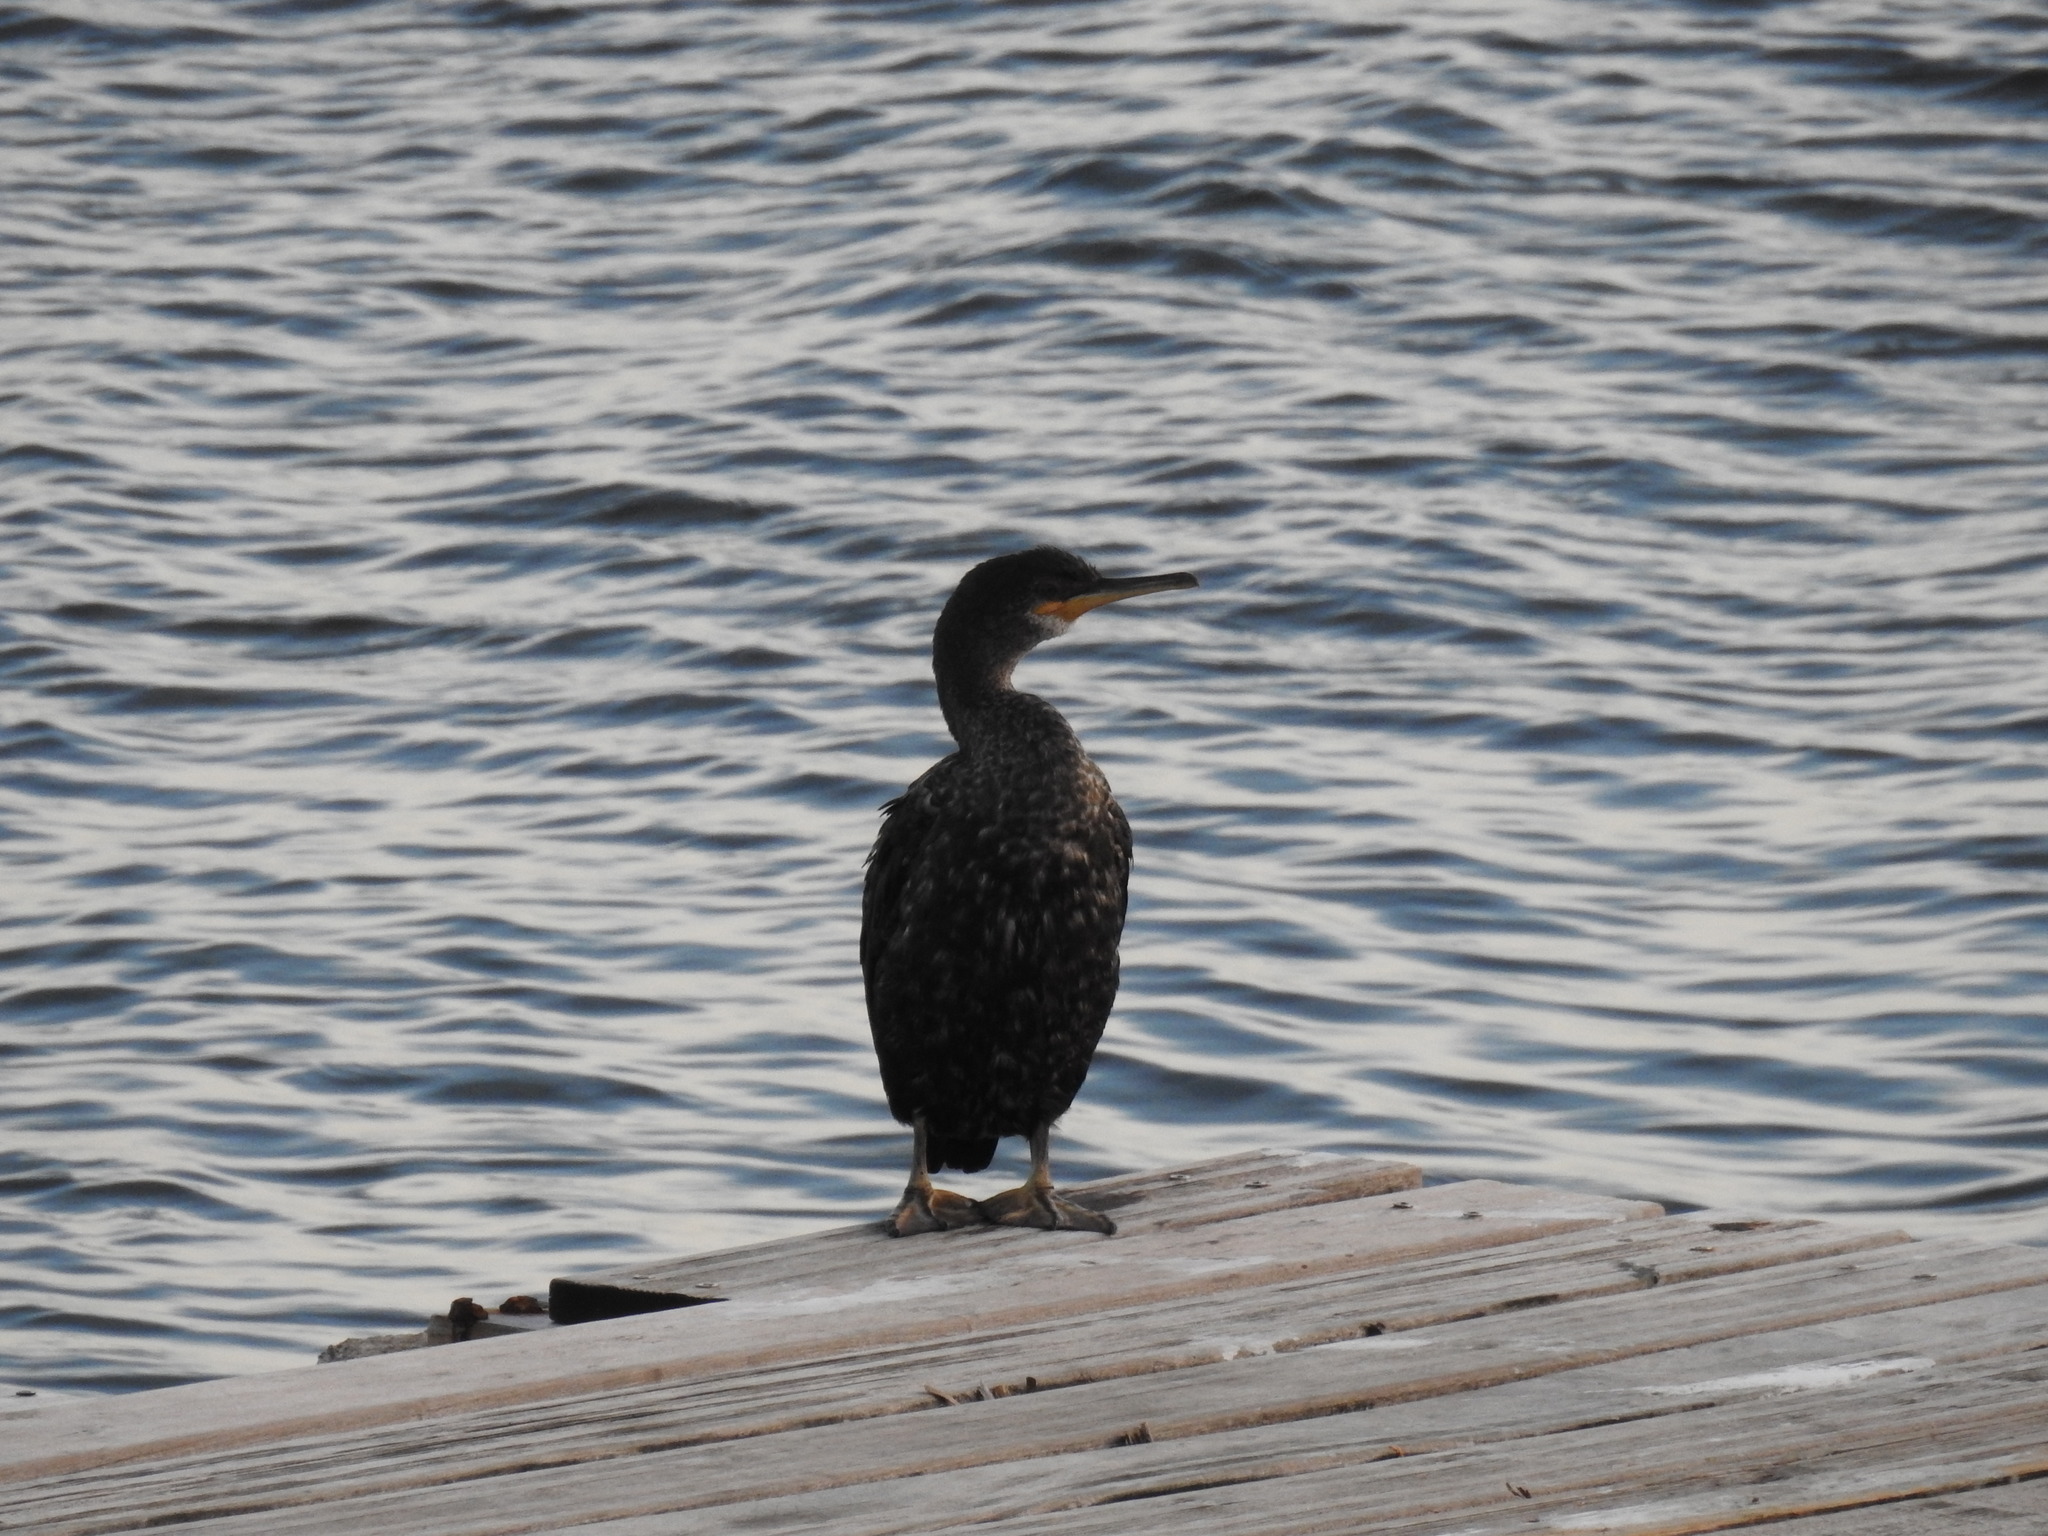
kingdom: Animalia
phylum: Chordata
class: Aves
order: Suliformes
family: Phalacrocoracidae
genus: Phalacrocorax
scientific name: Phalacrocorax aristotelis
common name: European shag
